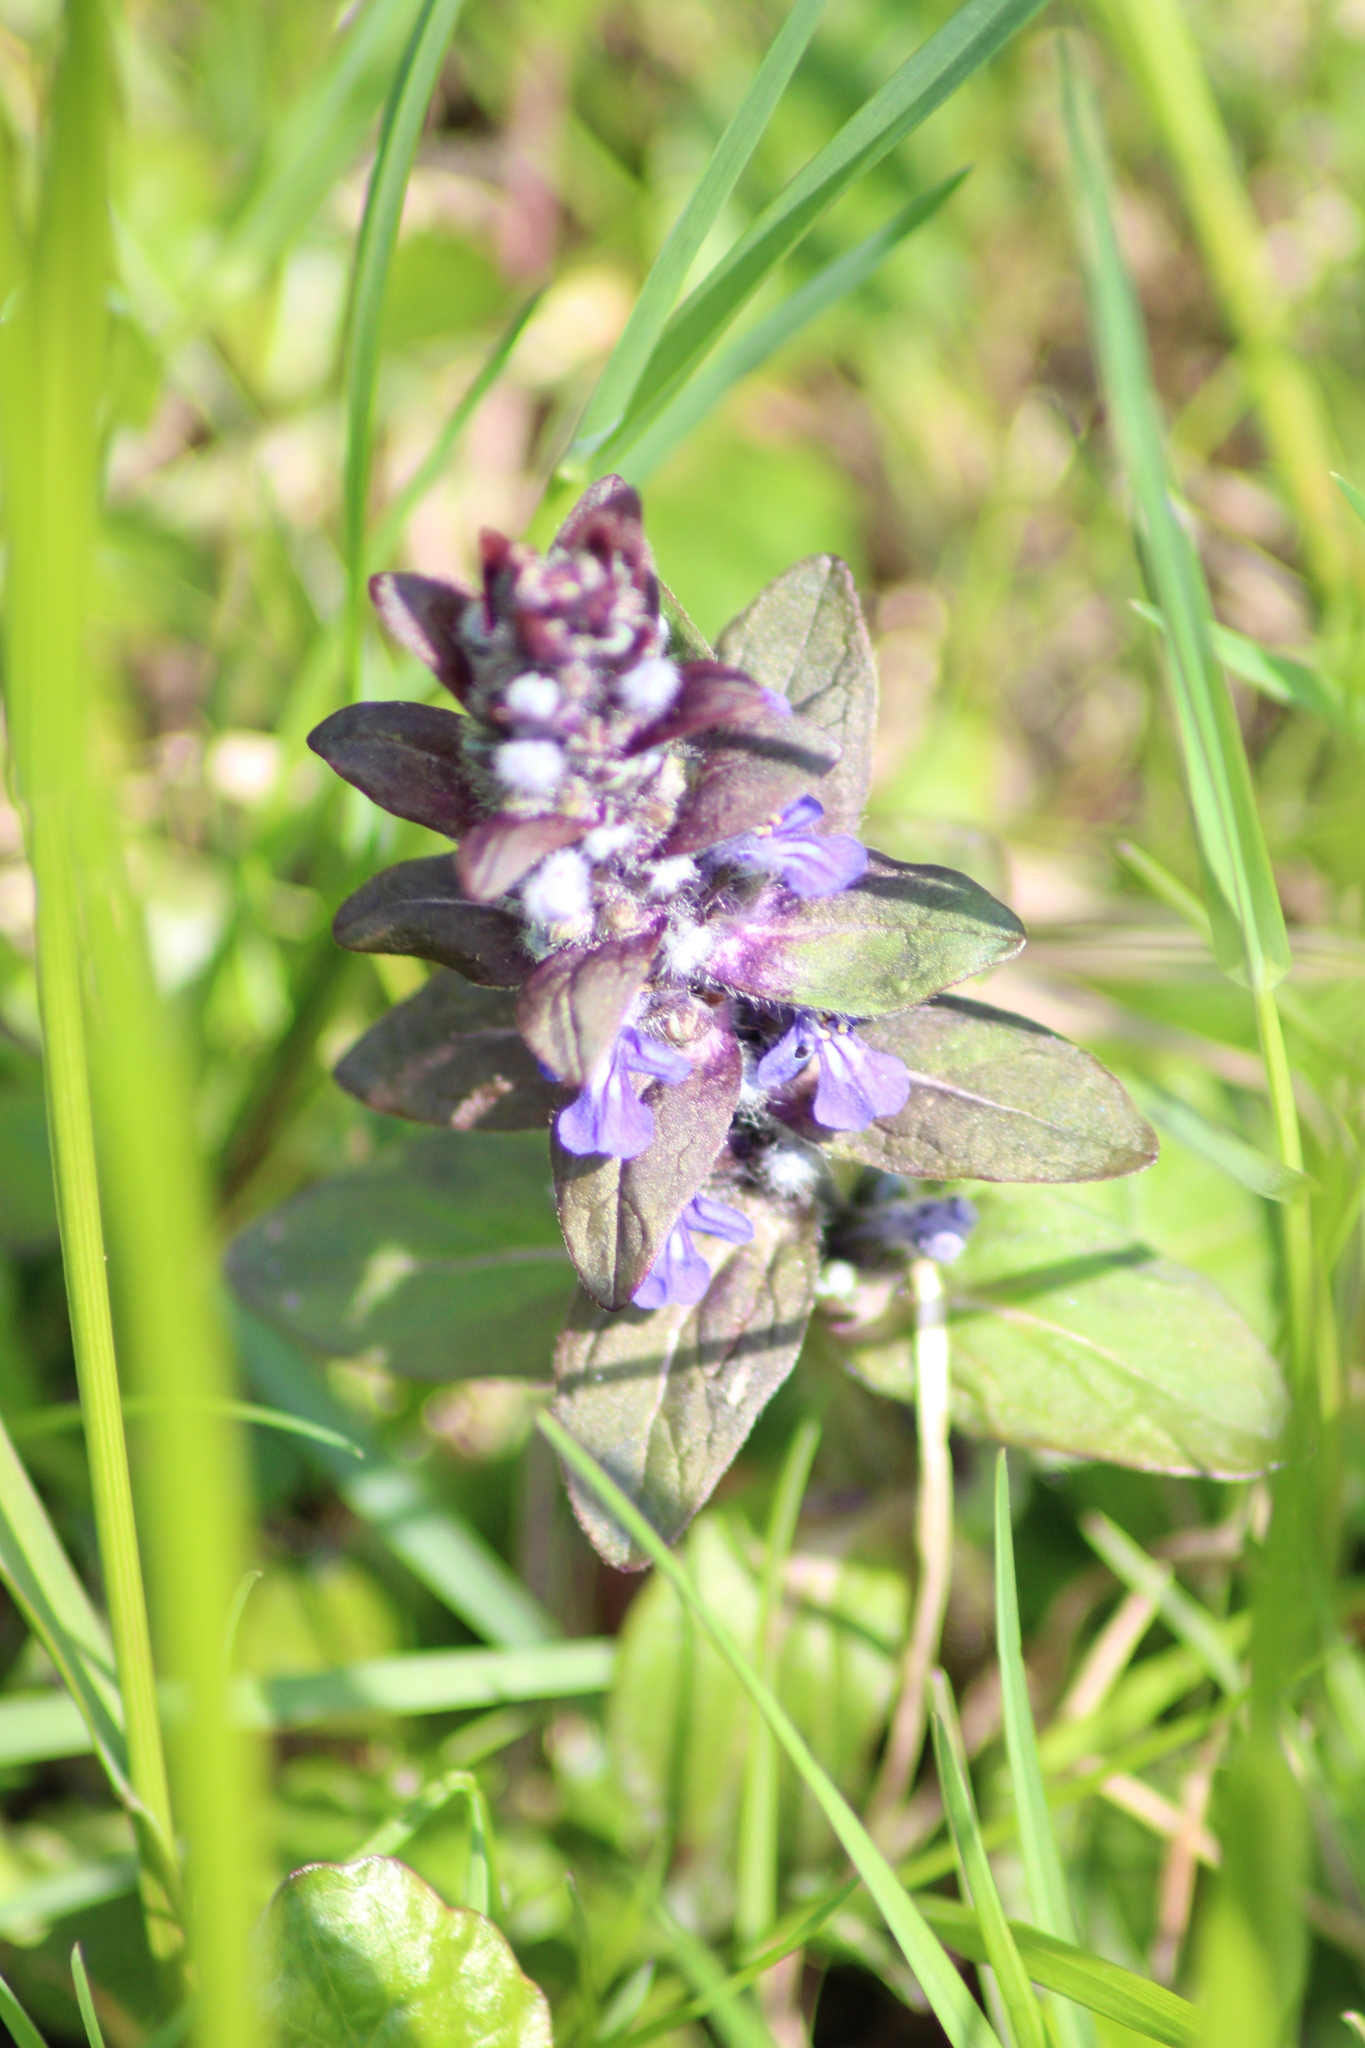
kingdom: Plantae
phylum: Tracheophyta
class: Magnoliopsida
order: Lamiales
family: Lamiaceae
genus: Ajuga
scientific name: Ajuga reptans
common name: Bugle
